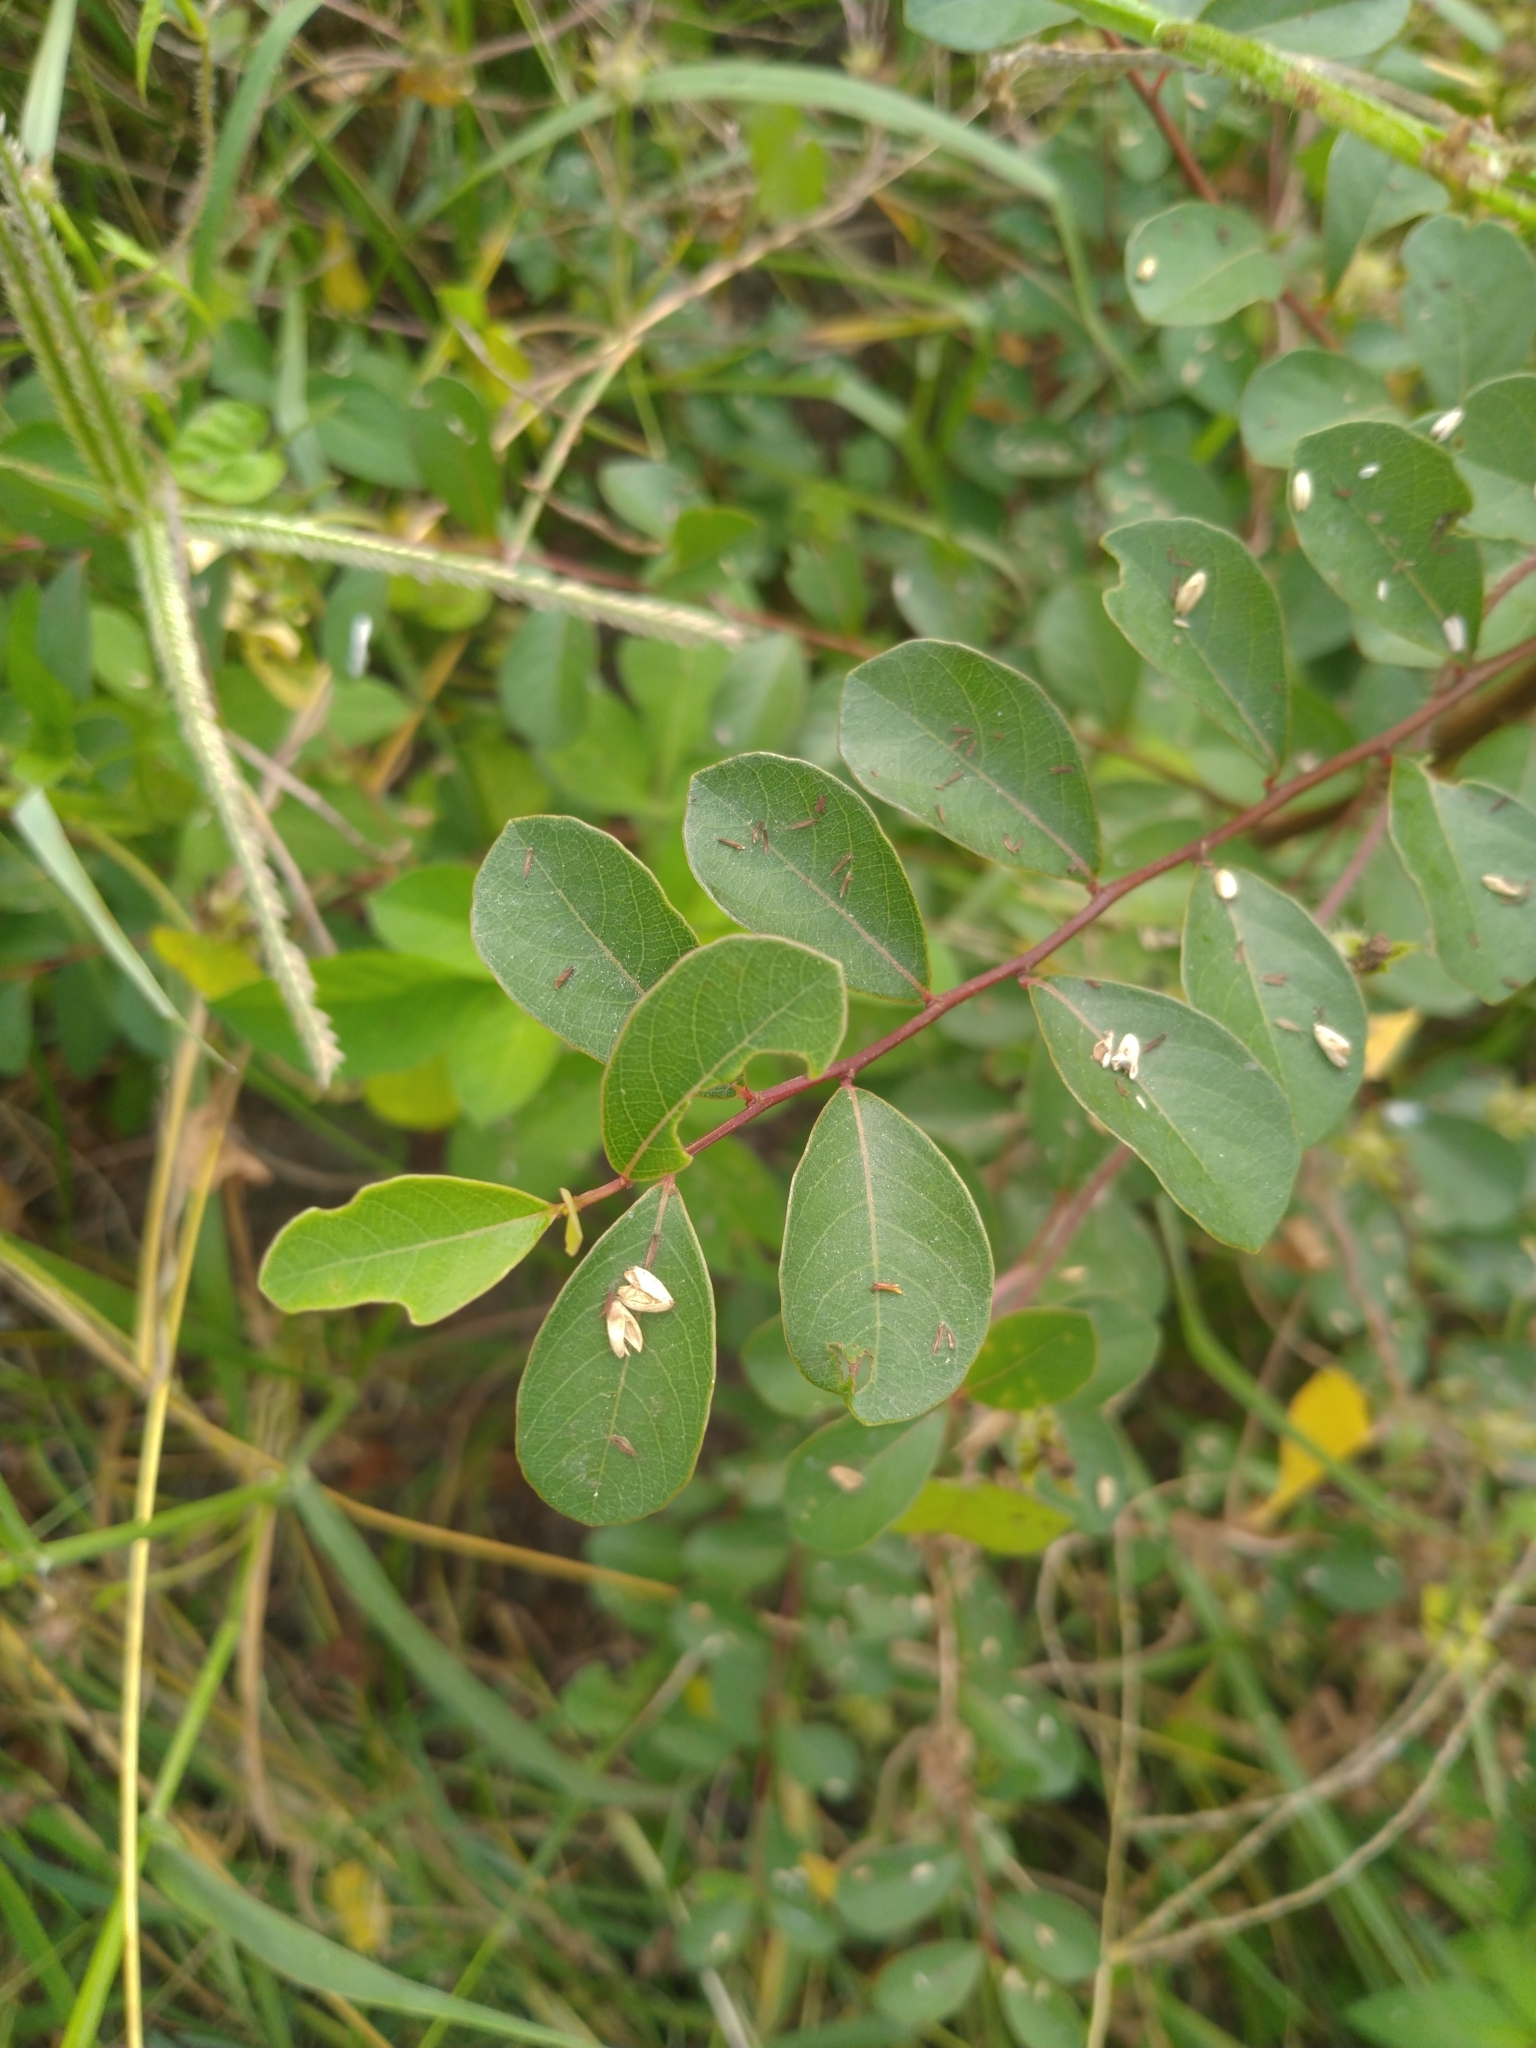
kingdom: Plantae
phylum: Tracheophyta
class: Magnoliopsida
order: Malpighiales
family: Phyllanthaceae
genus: Flueggea
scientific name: Flueggea virosa
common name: Common bushweed
